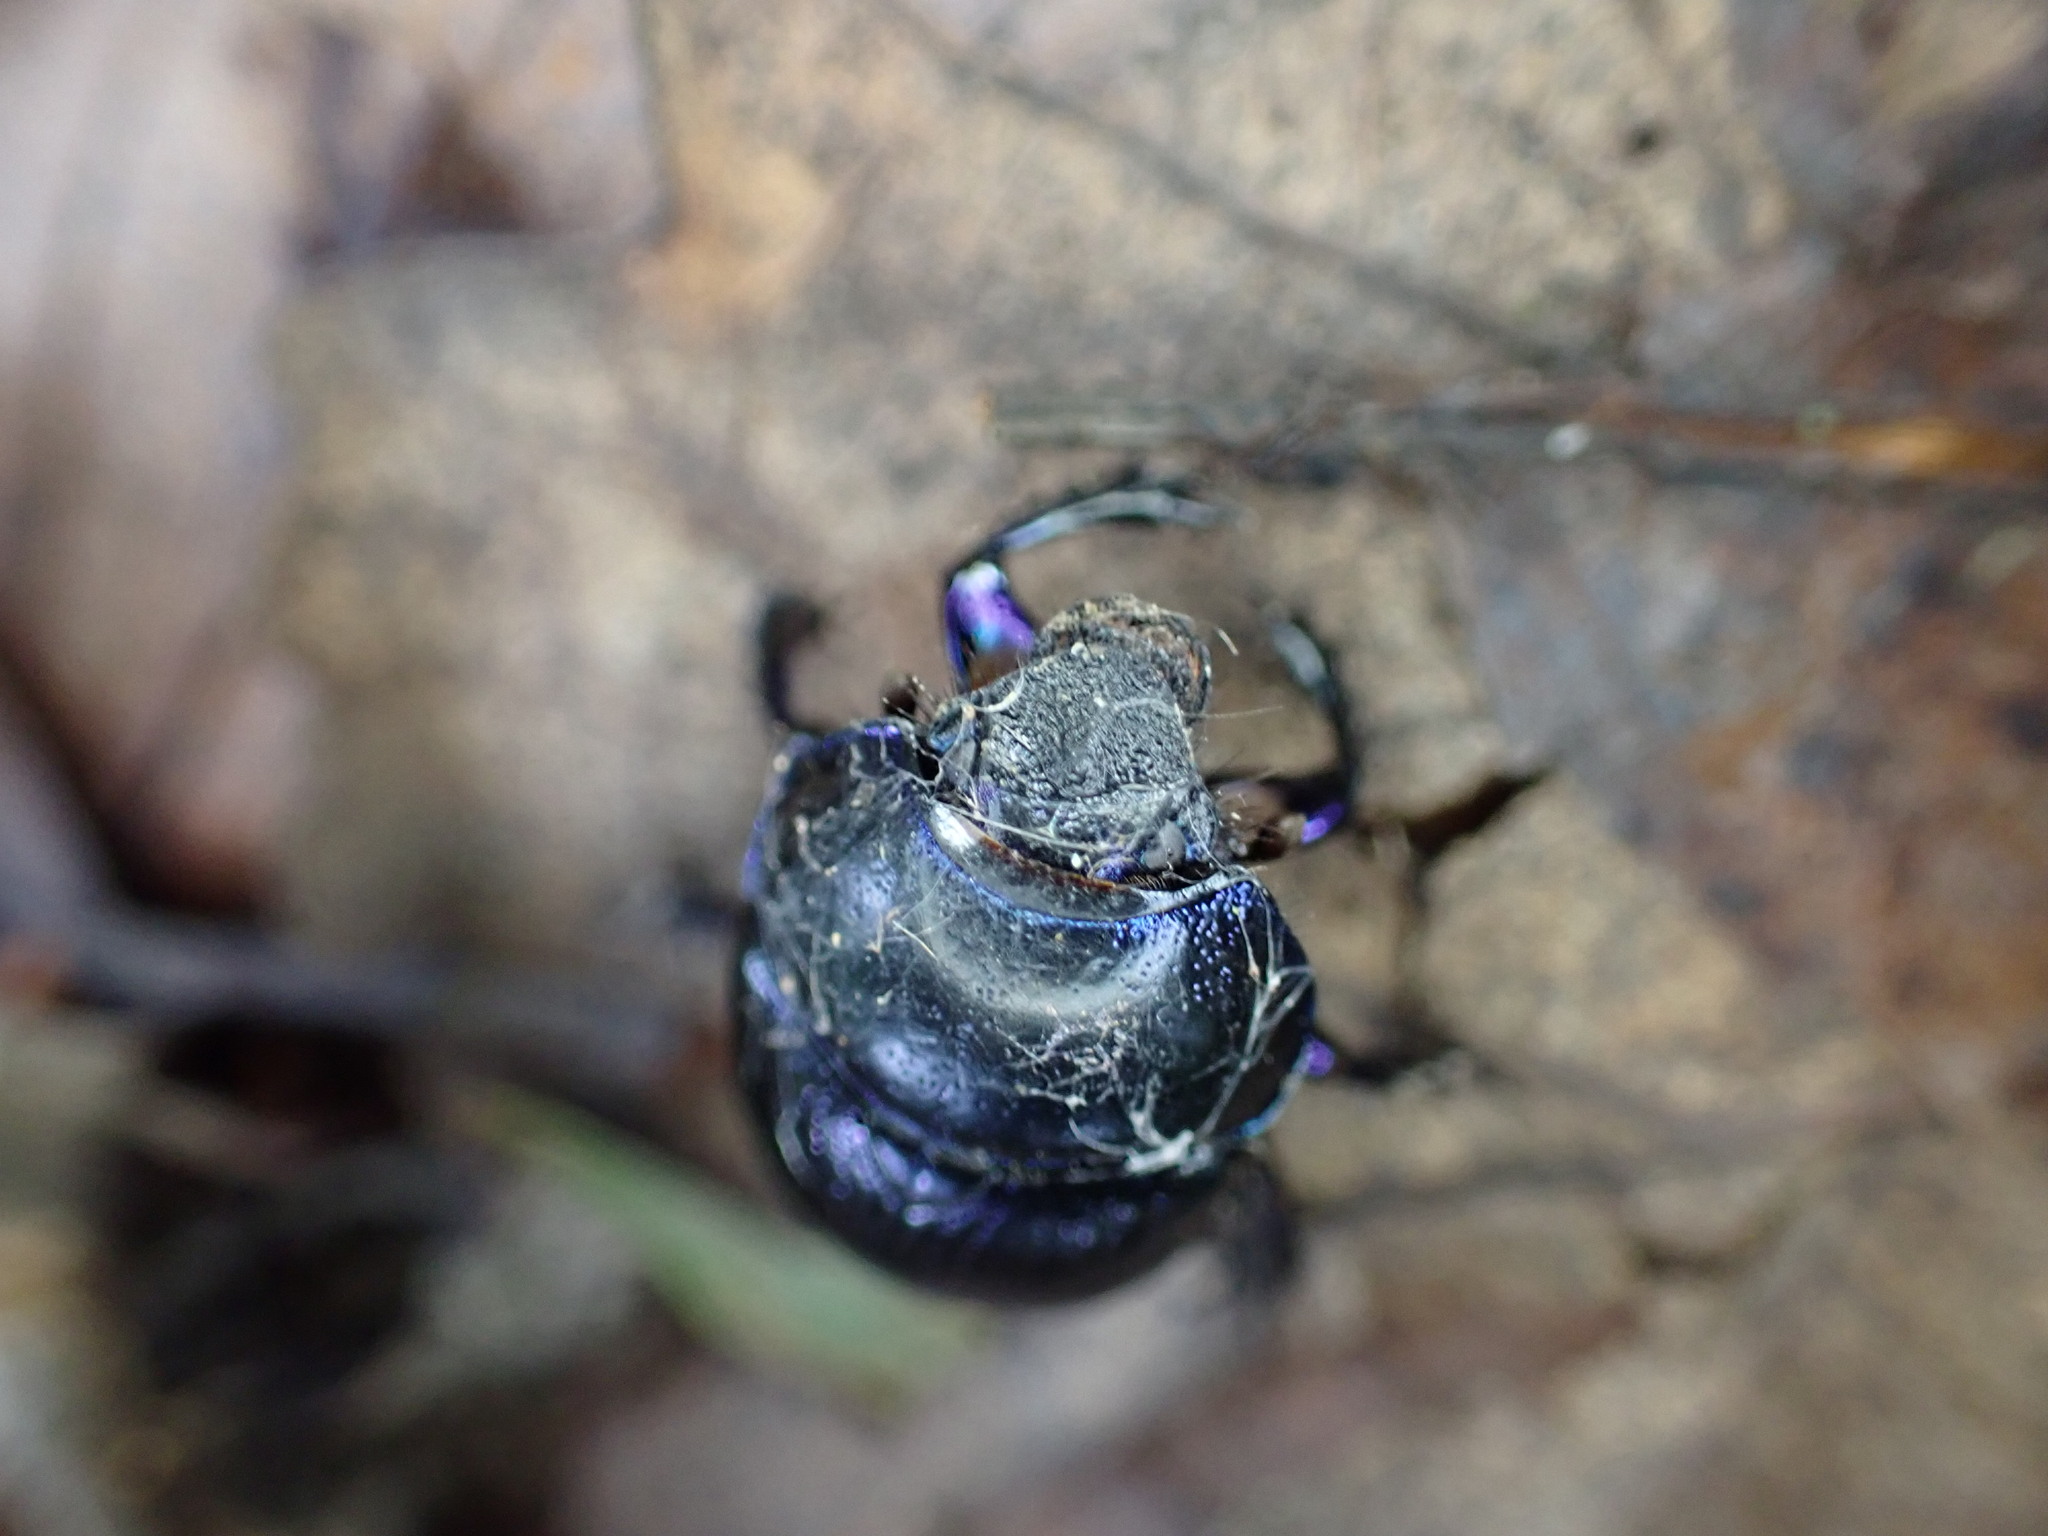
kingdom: Animalia
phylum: Arthropoda
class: Insecta
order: Coleoptera
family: Geotrupidae
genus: Anoplotrupes
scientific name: Anoplotrupes stercorosus
